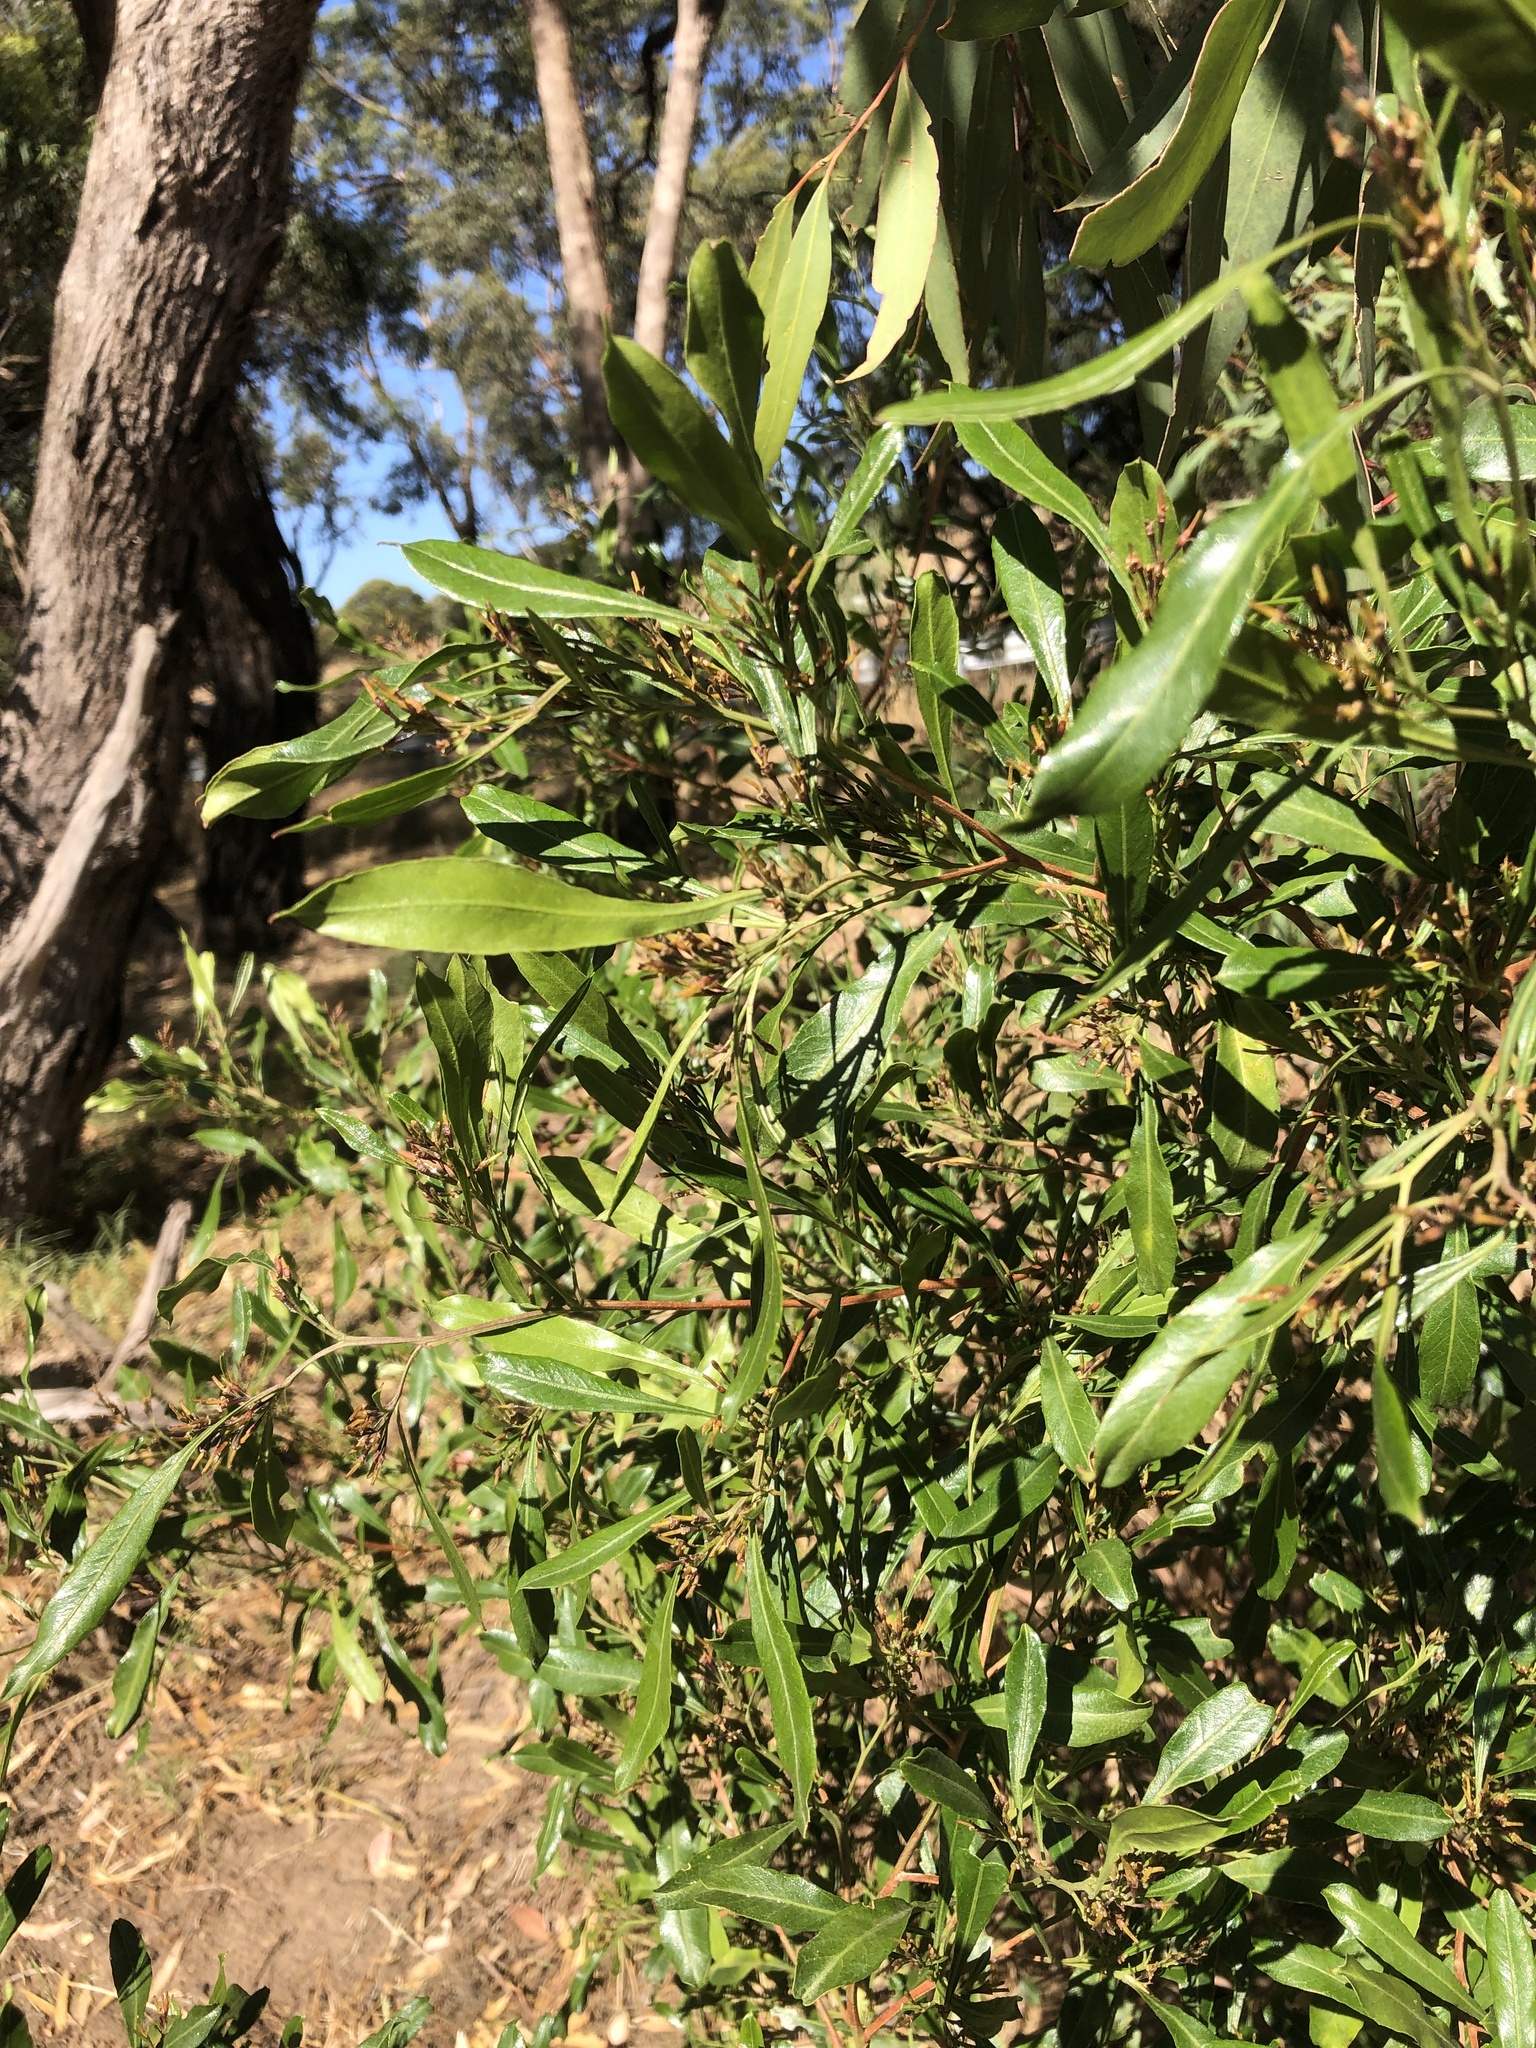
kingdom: Plantae
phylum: Tracheophyta
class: Magnoliopsida
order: Sapindales
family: Sapindaceae
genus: Dodonaea
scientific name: Dodonaea viscosa
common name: Hopbush
